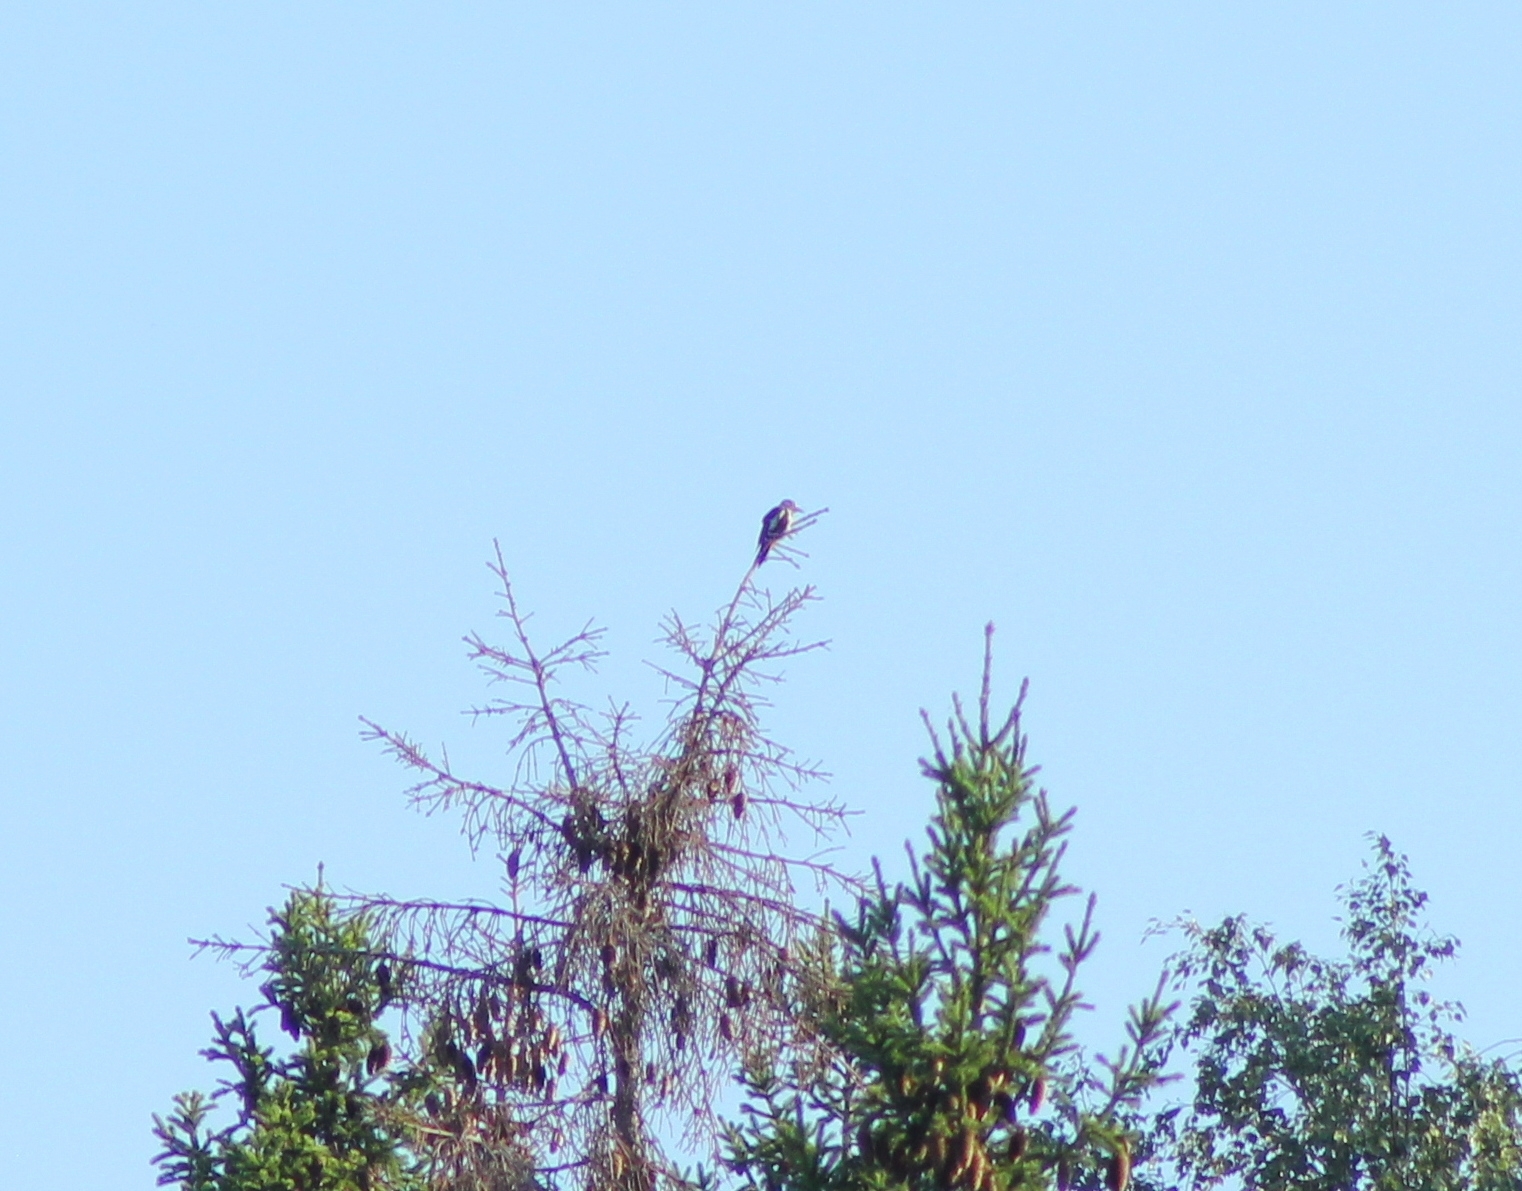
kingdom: Animalia
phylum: Chordata
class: Aves
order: Piciformes
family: Picidae
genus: Dendrocopos
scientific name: Dendrocopos major
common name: Great spotted woodpecker
